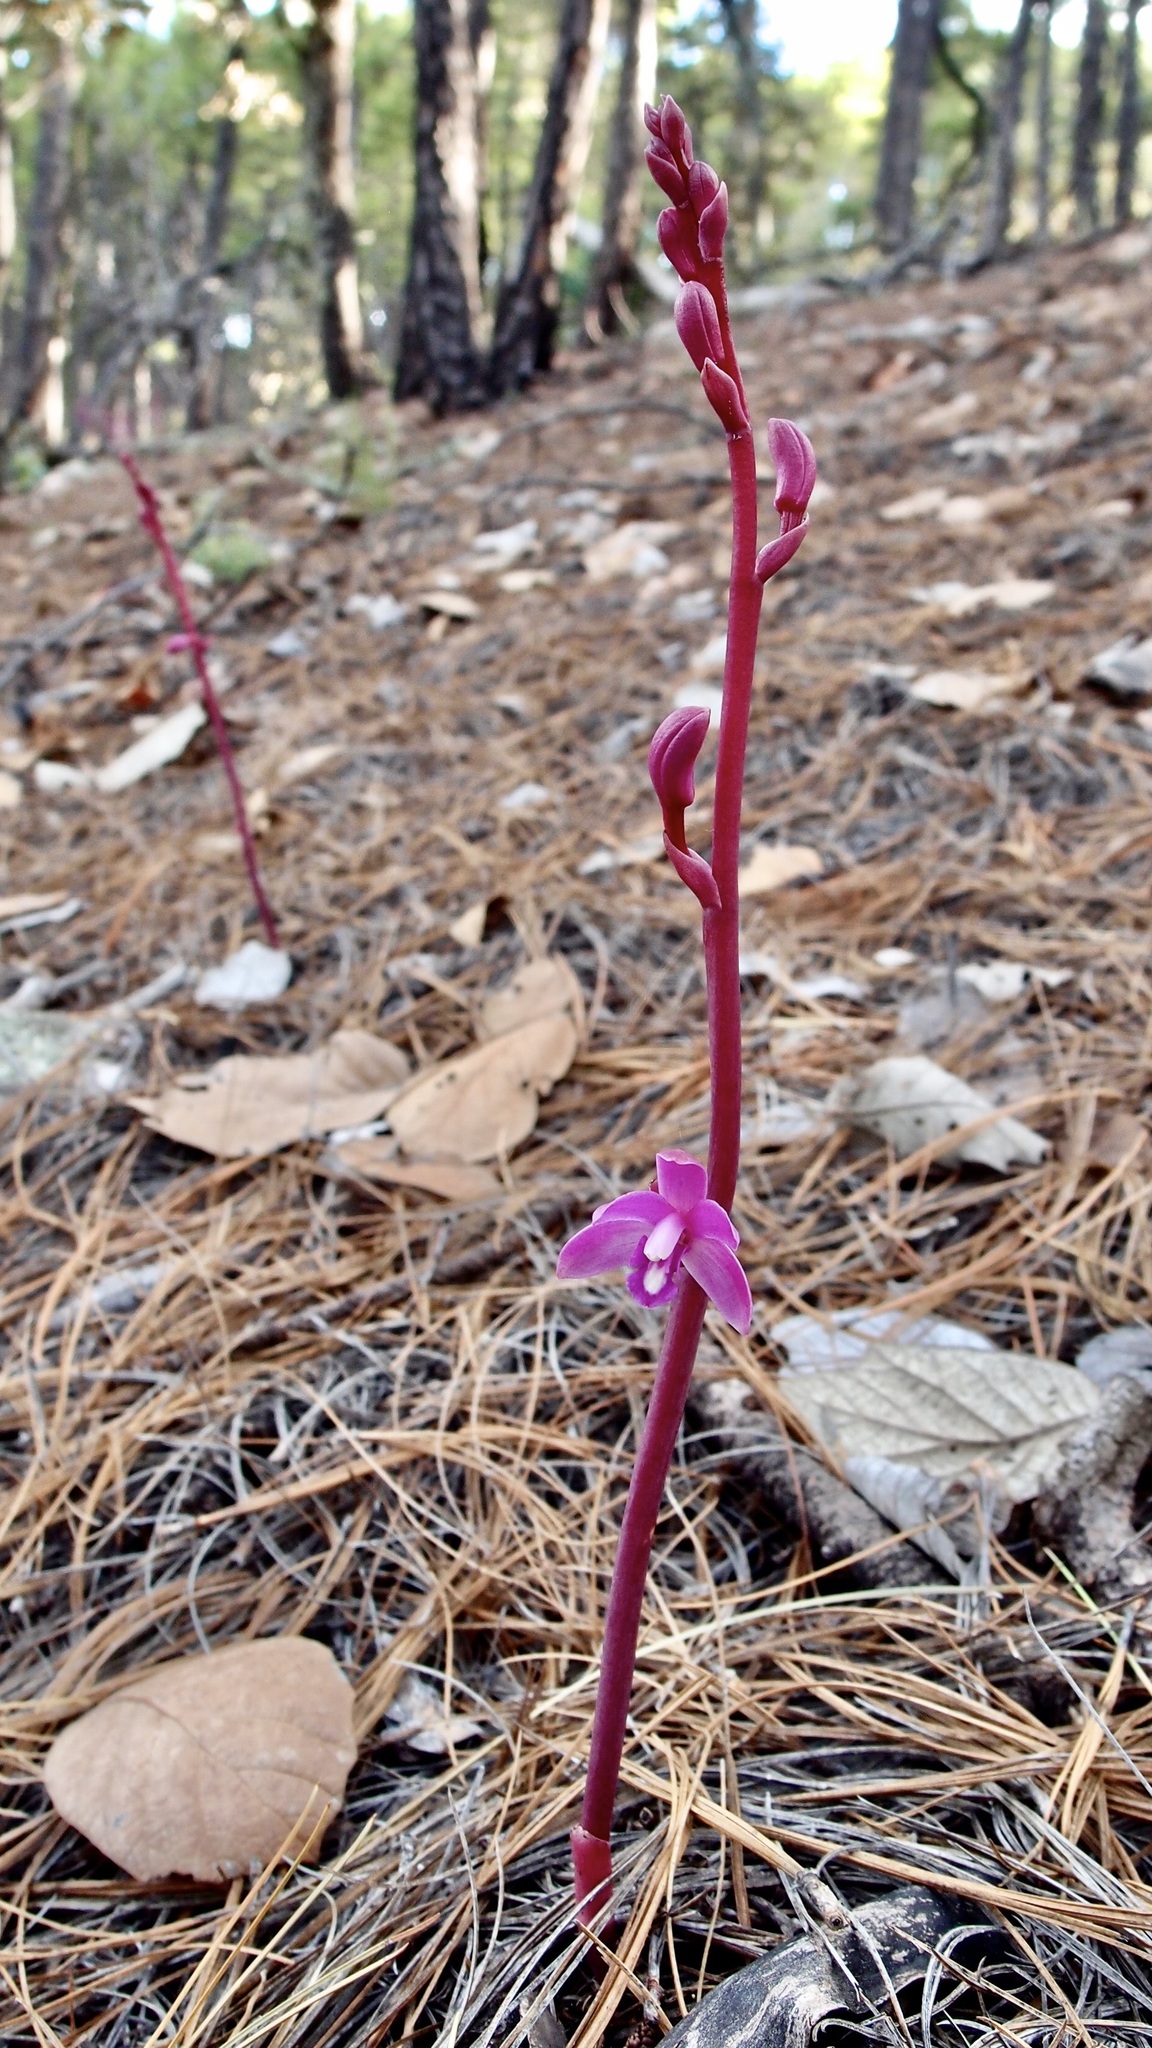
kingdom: Plantae
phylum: Tracheophyta
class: Liliopsida
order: Asparagales
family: Orchidaceae
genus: Bletia
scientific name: Bletia mexicana
